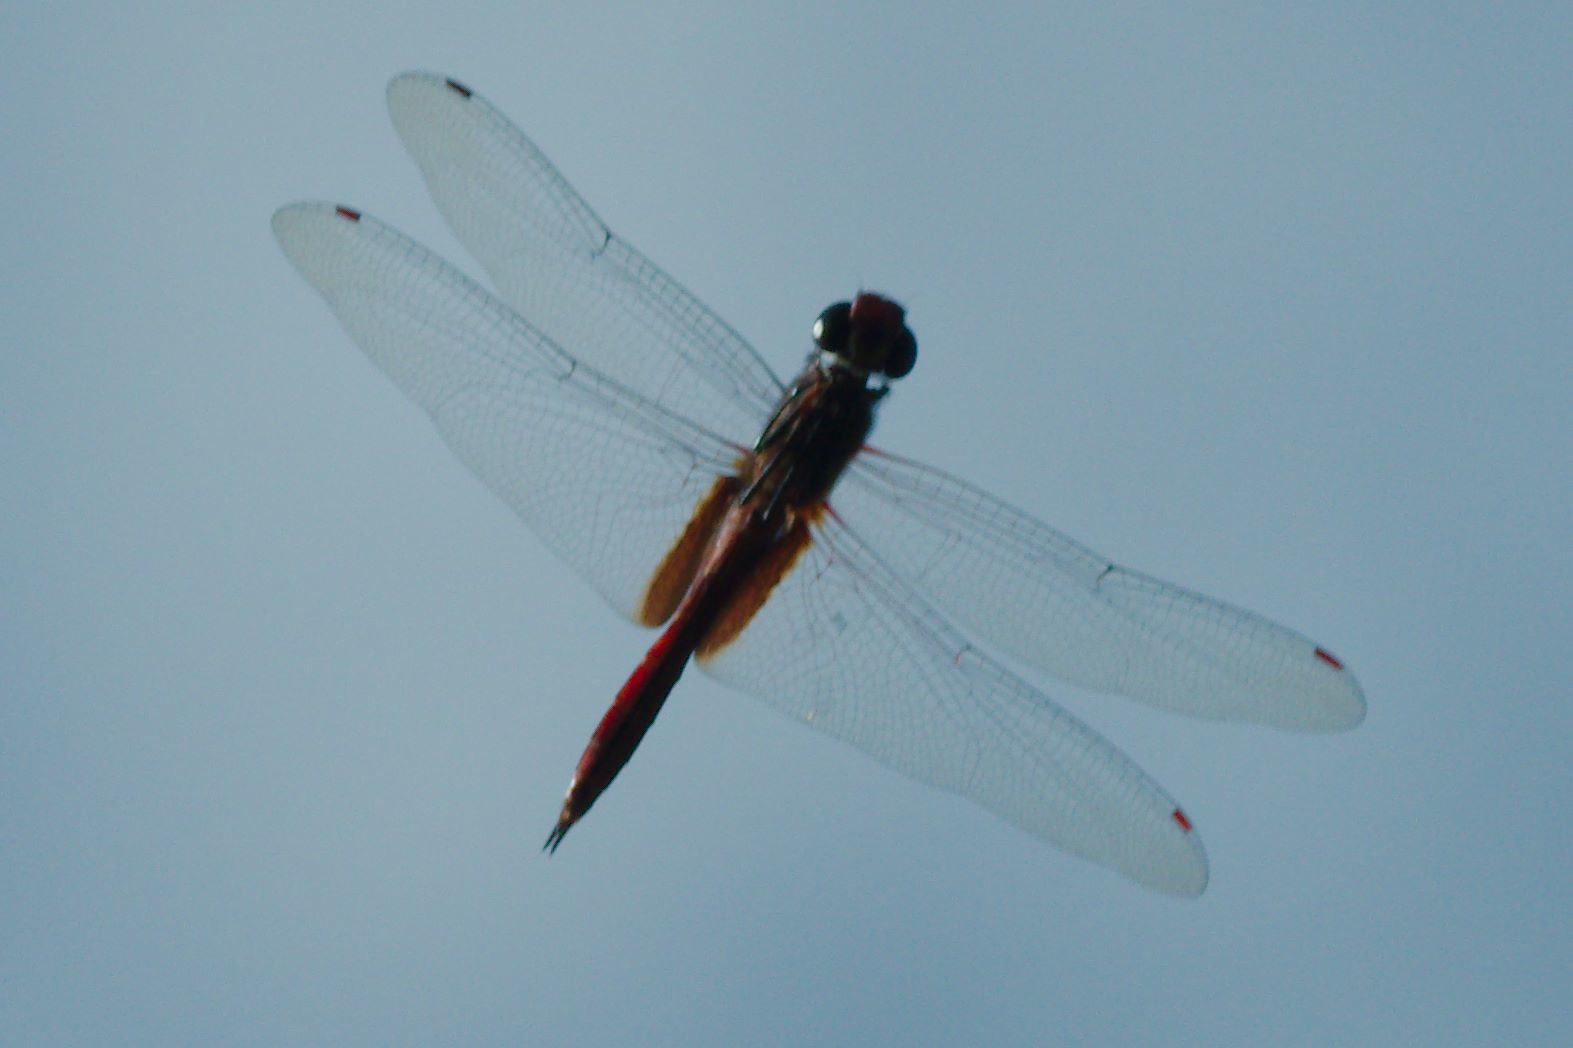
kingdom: Animalia
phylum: Arthropoda
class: Insecta
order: Odonata
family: Libellulidae
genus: Tramea
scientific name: Tramea abdominalis
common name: Vermilion saddlebags
